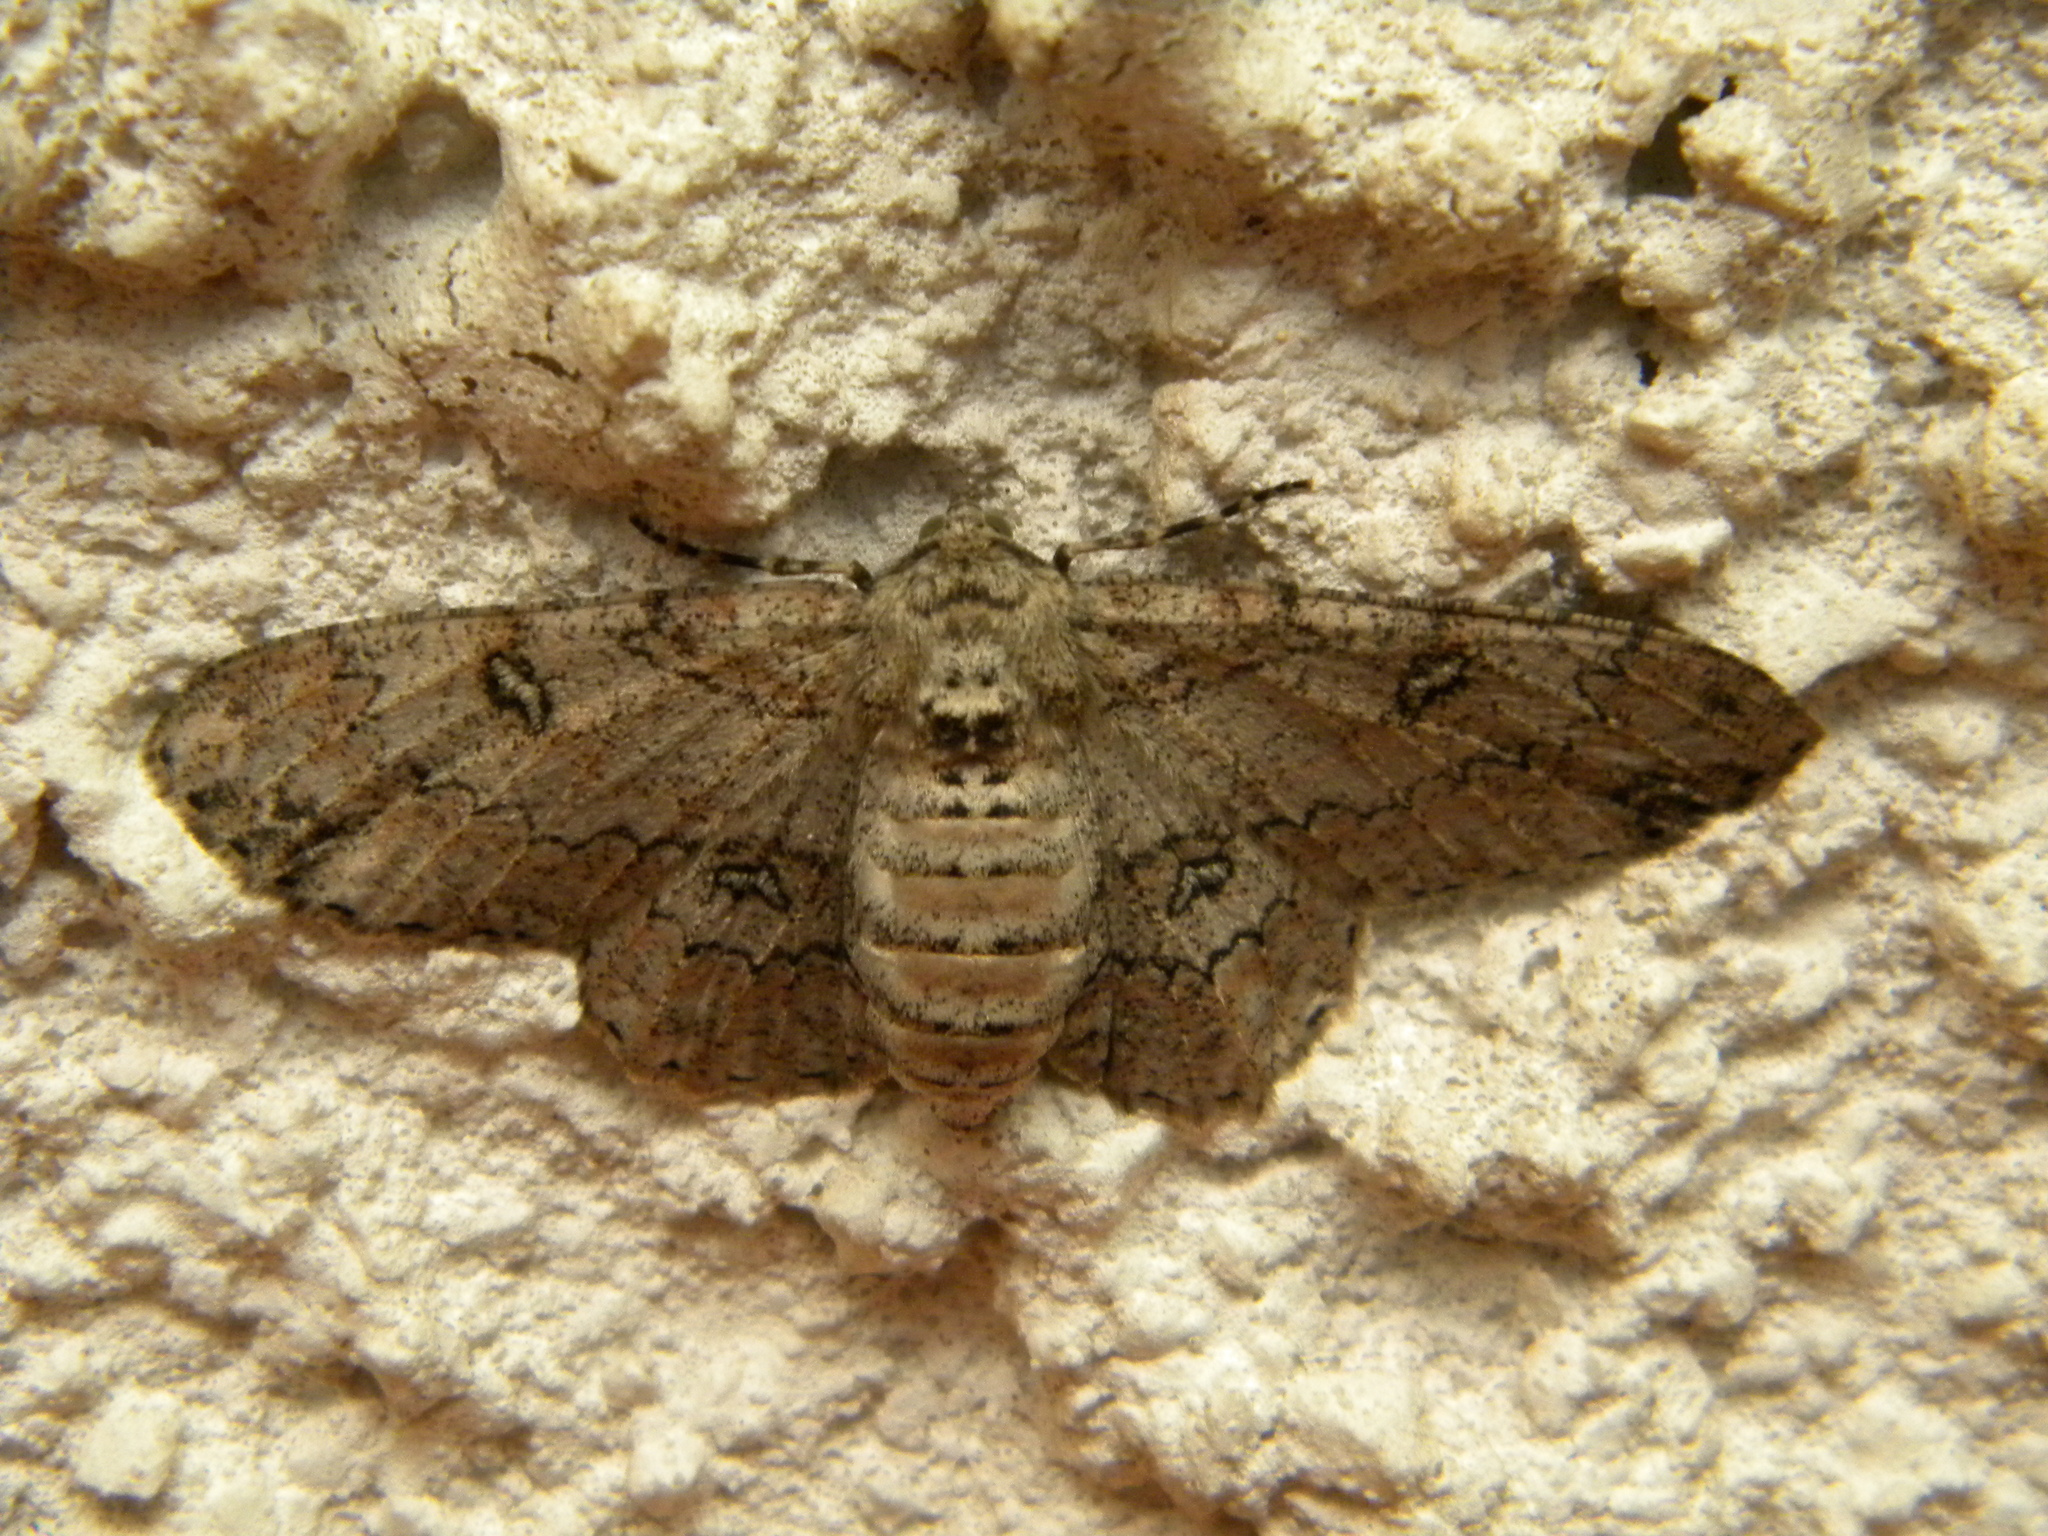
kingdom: Animalia
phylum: Arthropoda
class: Insecta
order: Lepidoptera
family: Geometridae
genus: Ascotis
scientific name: Ascotis selenaria
